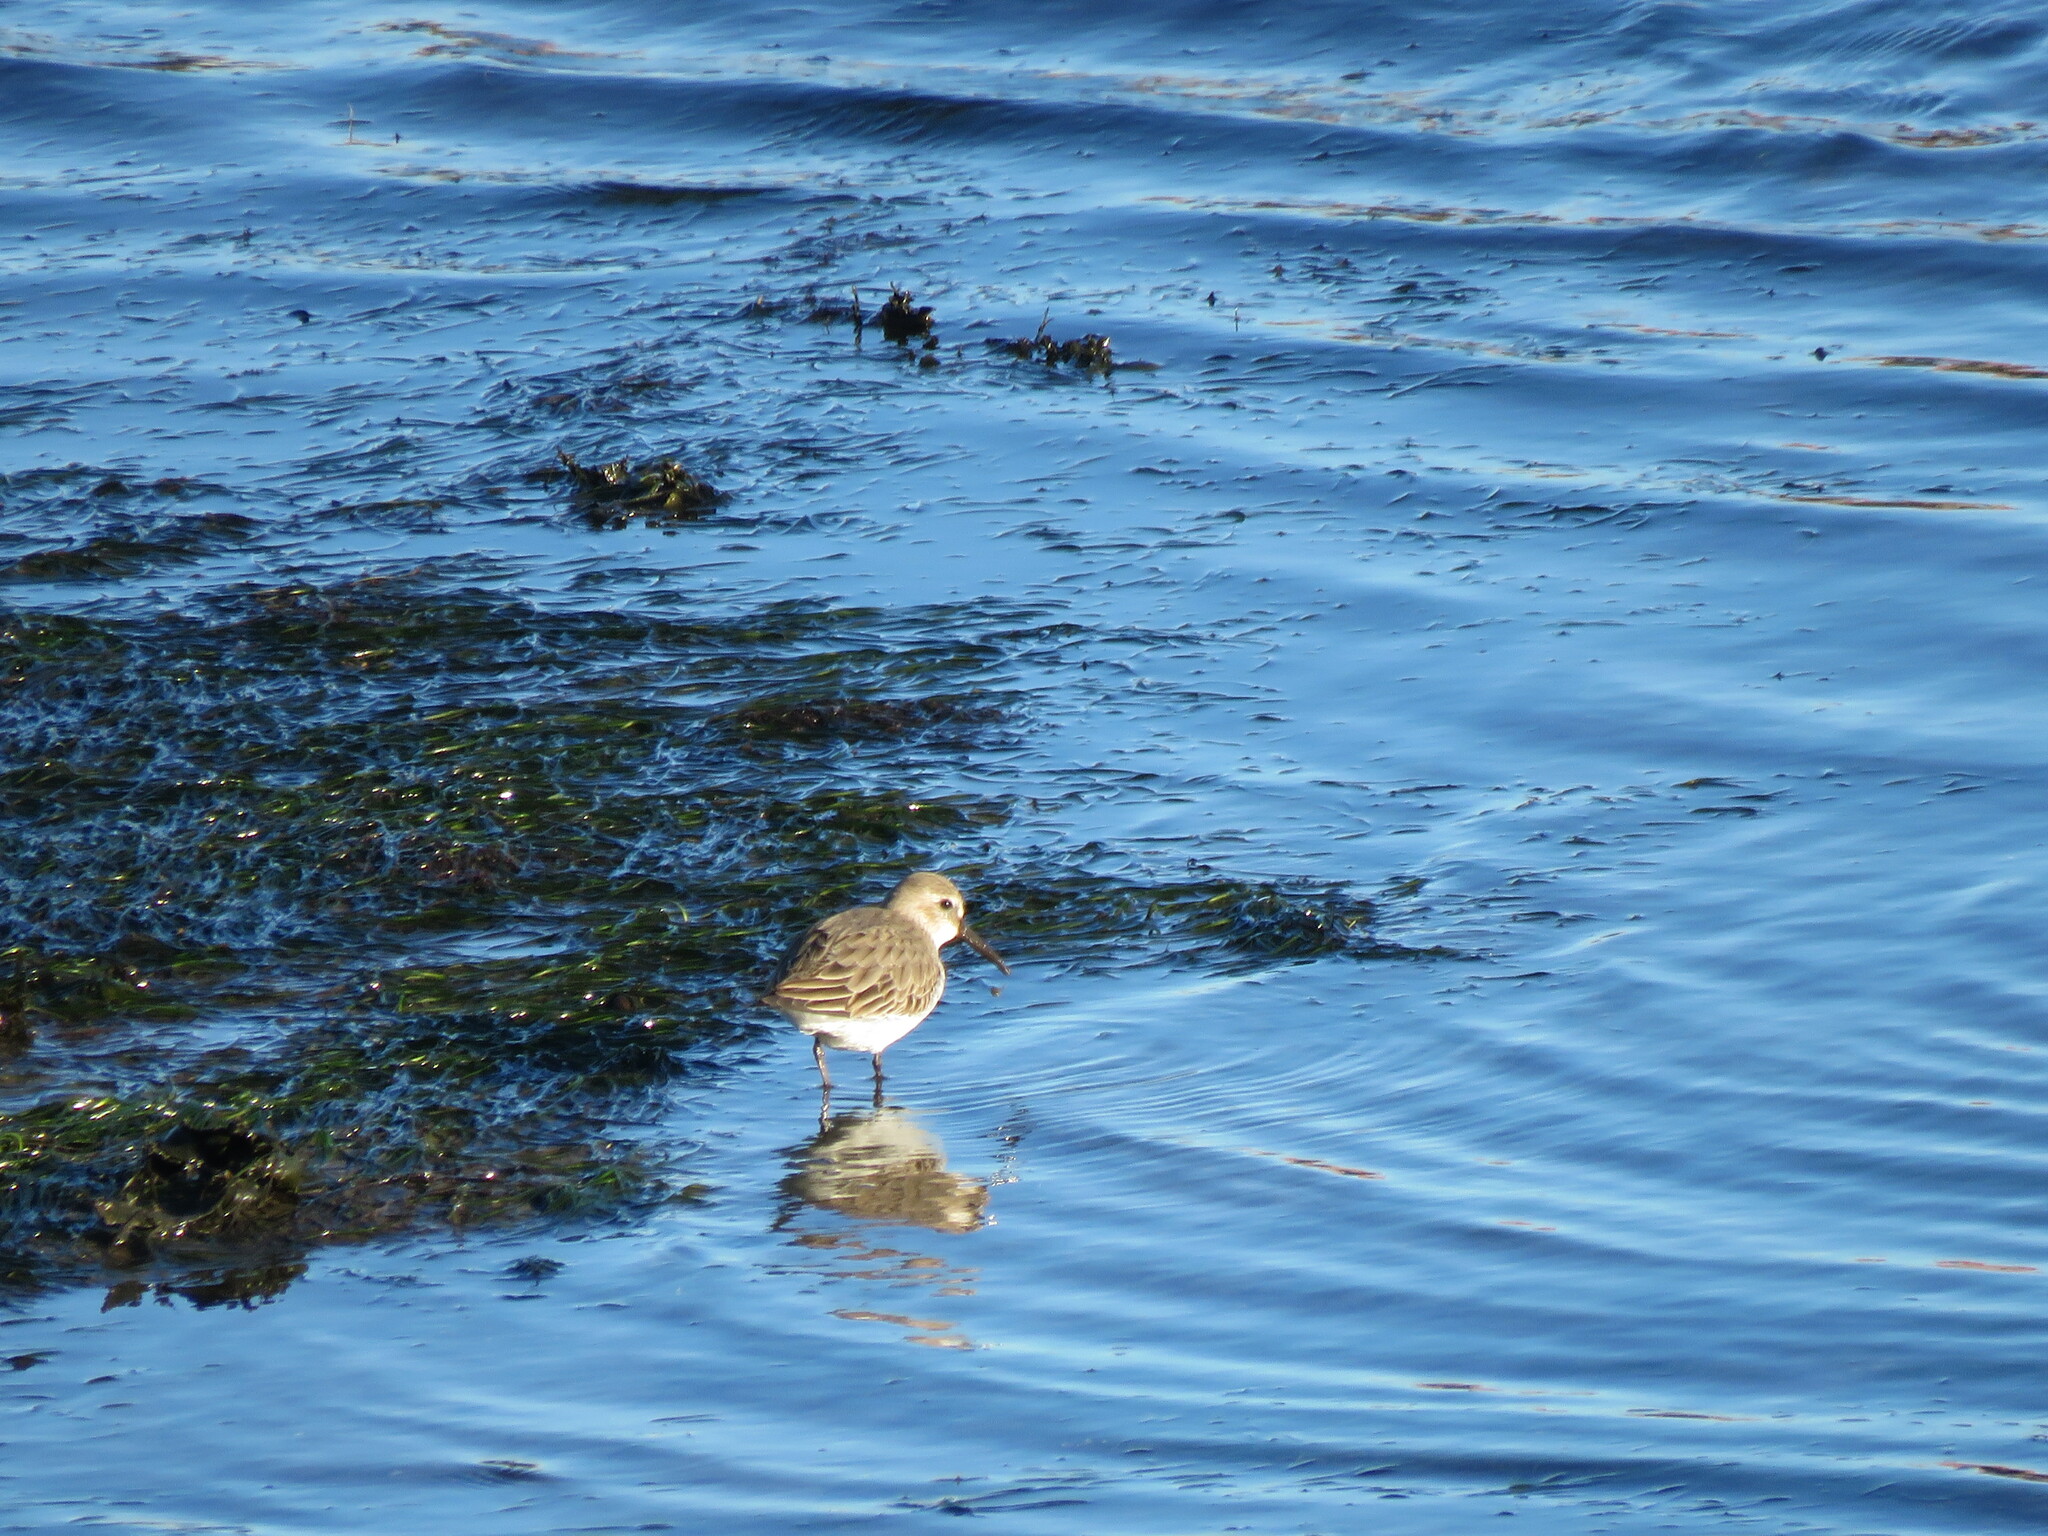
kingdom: Animalia
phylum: Chordata
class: Aves
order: Charadriiformes
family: Scolopacidae
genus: Calidris
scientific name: Calidris alpina
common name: Dunlin
